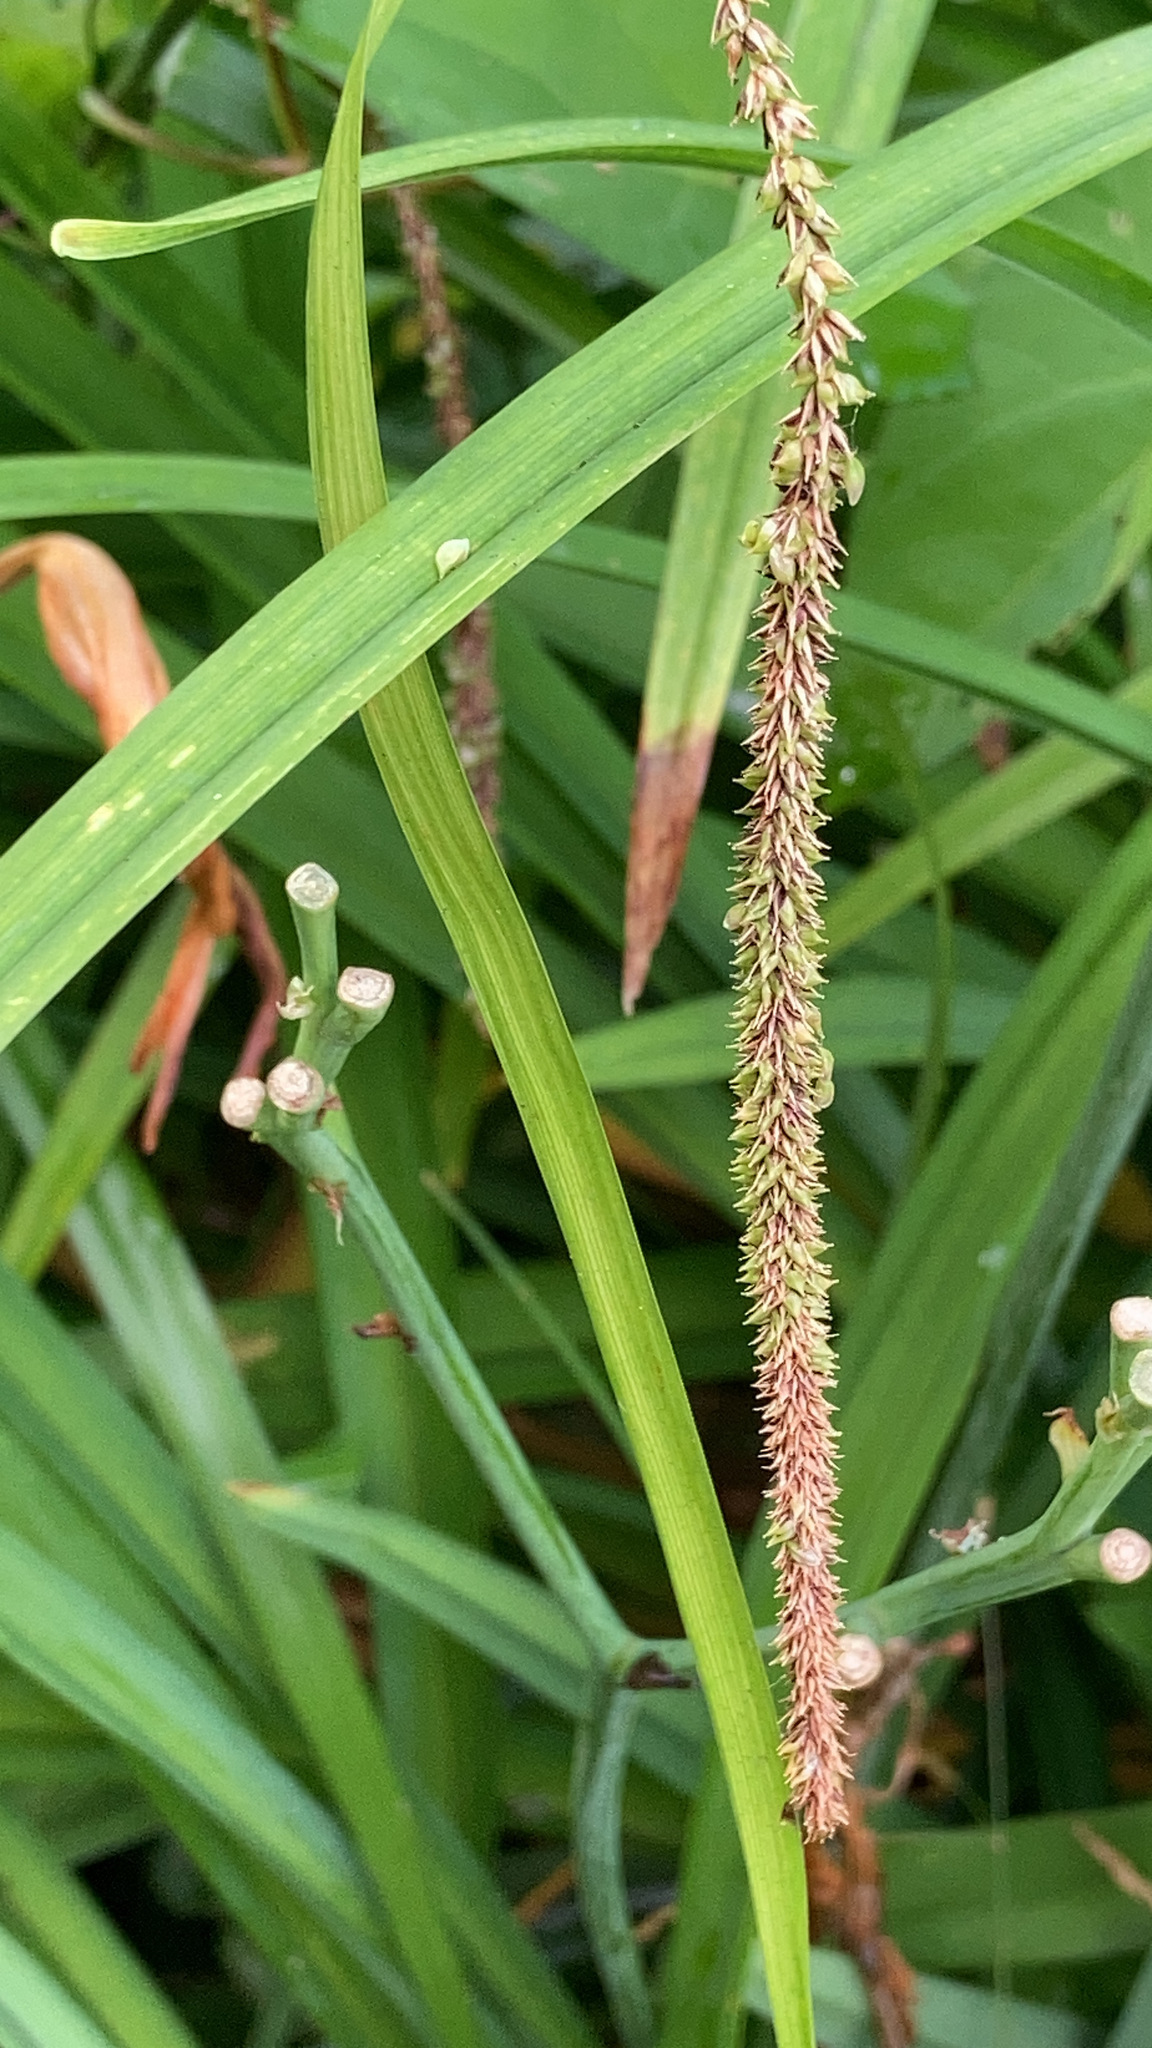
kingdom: Plantae
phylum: Tracheophyta
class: Liliopsida
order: Poales
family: Cyperaceae
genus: Carex
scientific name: Carex pendula
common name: Pendulous sedge
